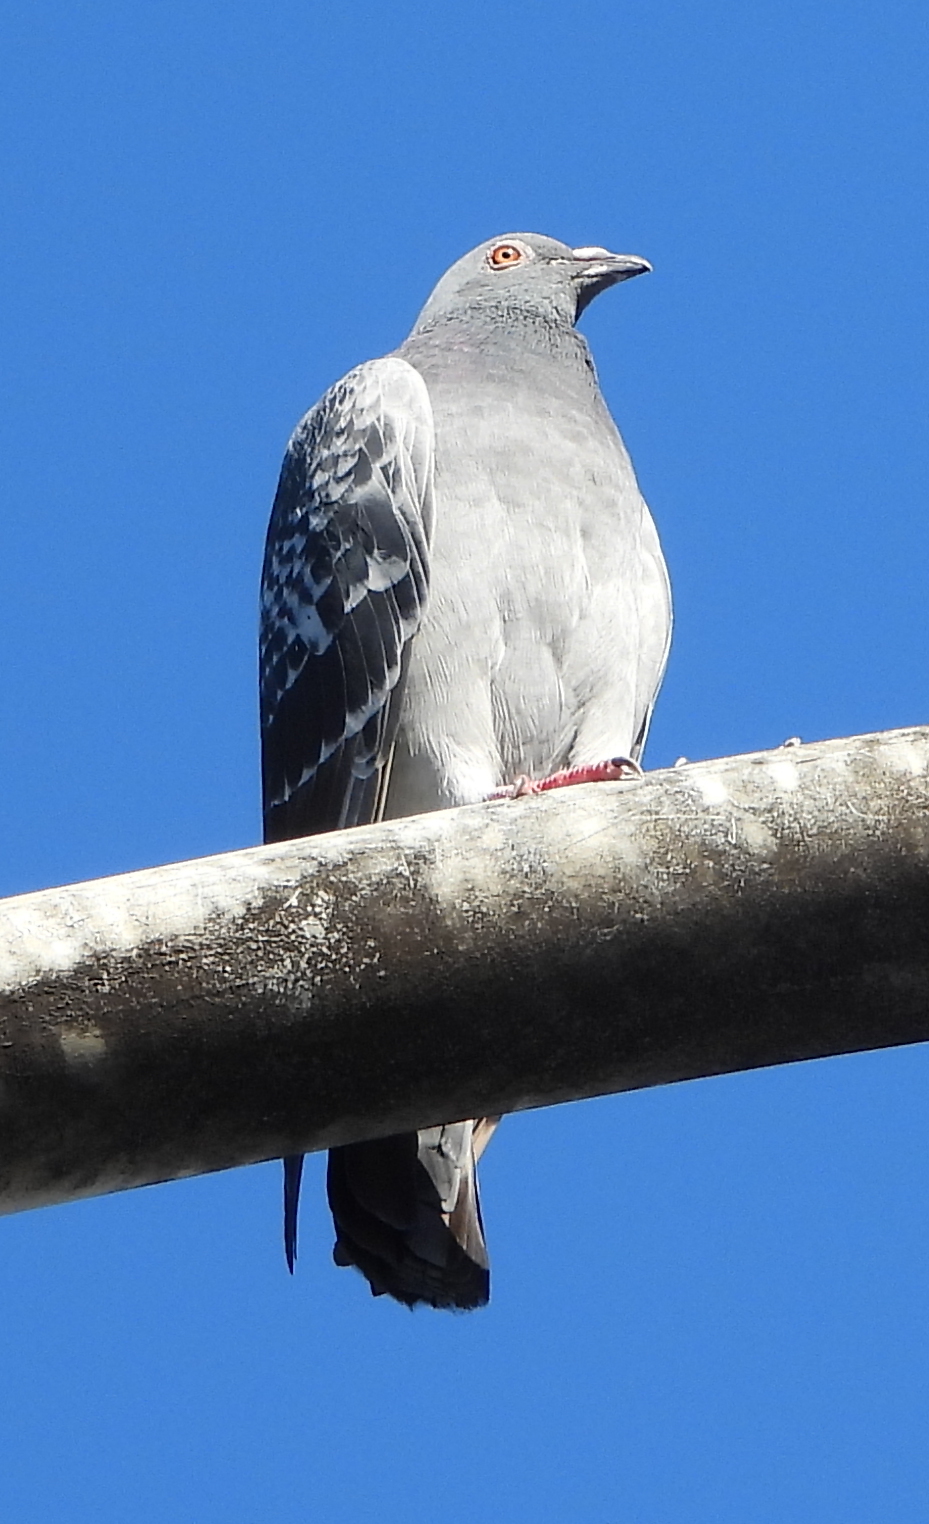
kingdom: Animalia
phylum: Chordata
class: Aves
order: Columbiformes
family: Columbidae
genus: Columba
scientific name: Columba livia
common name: Rock pigeon
